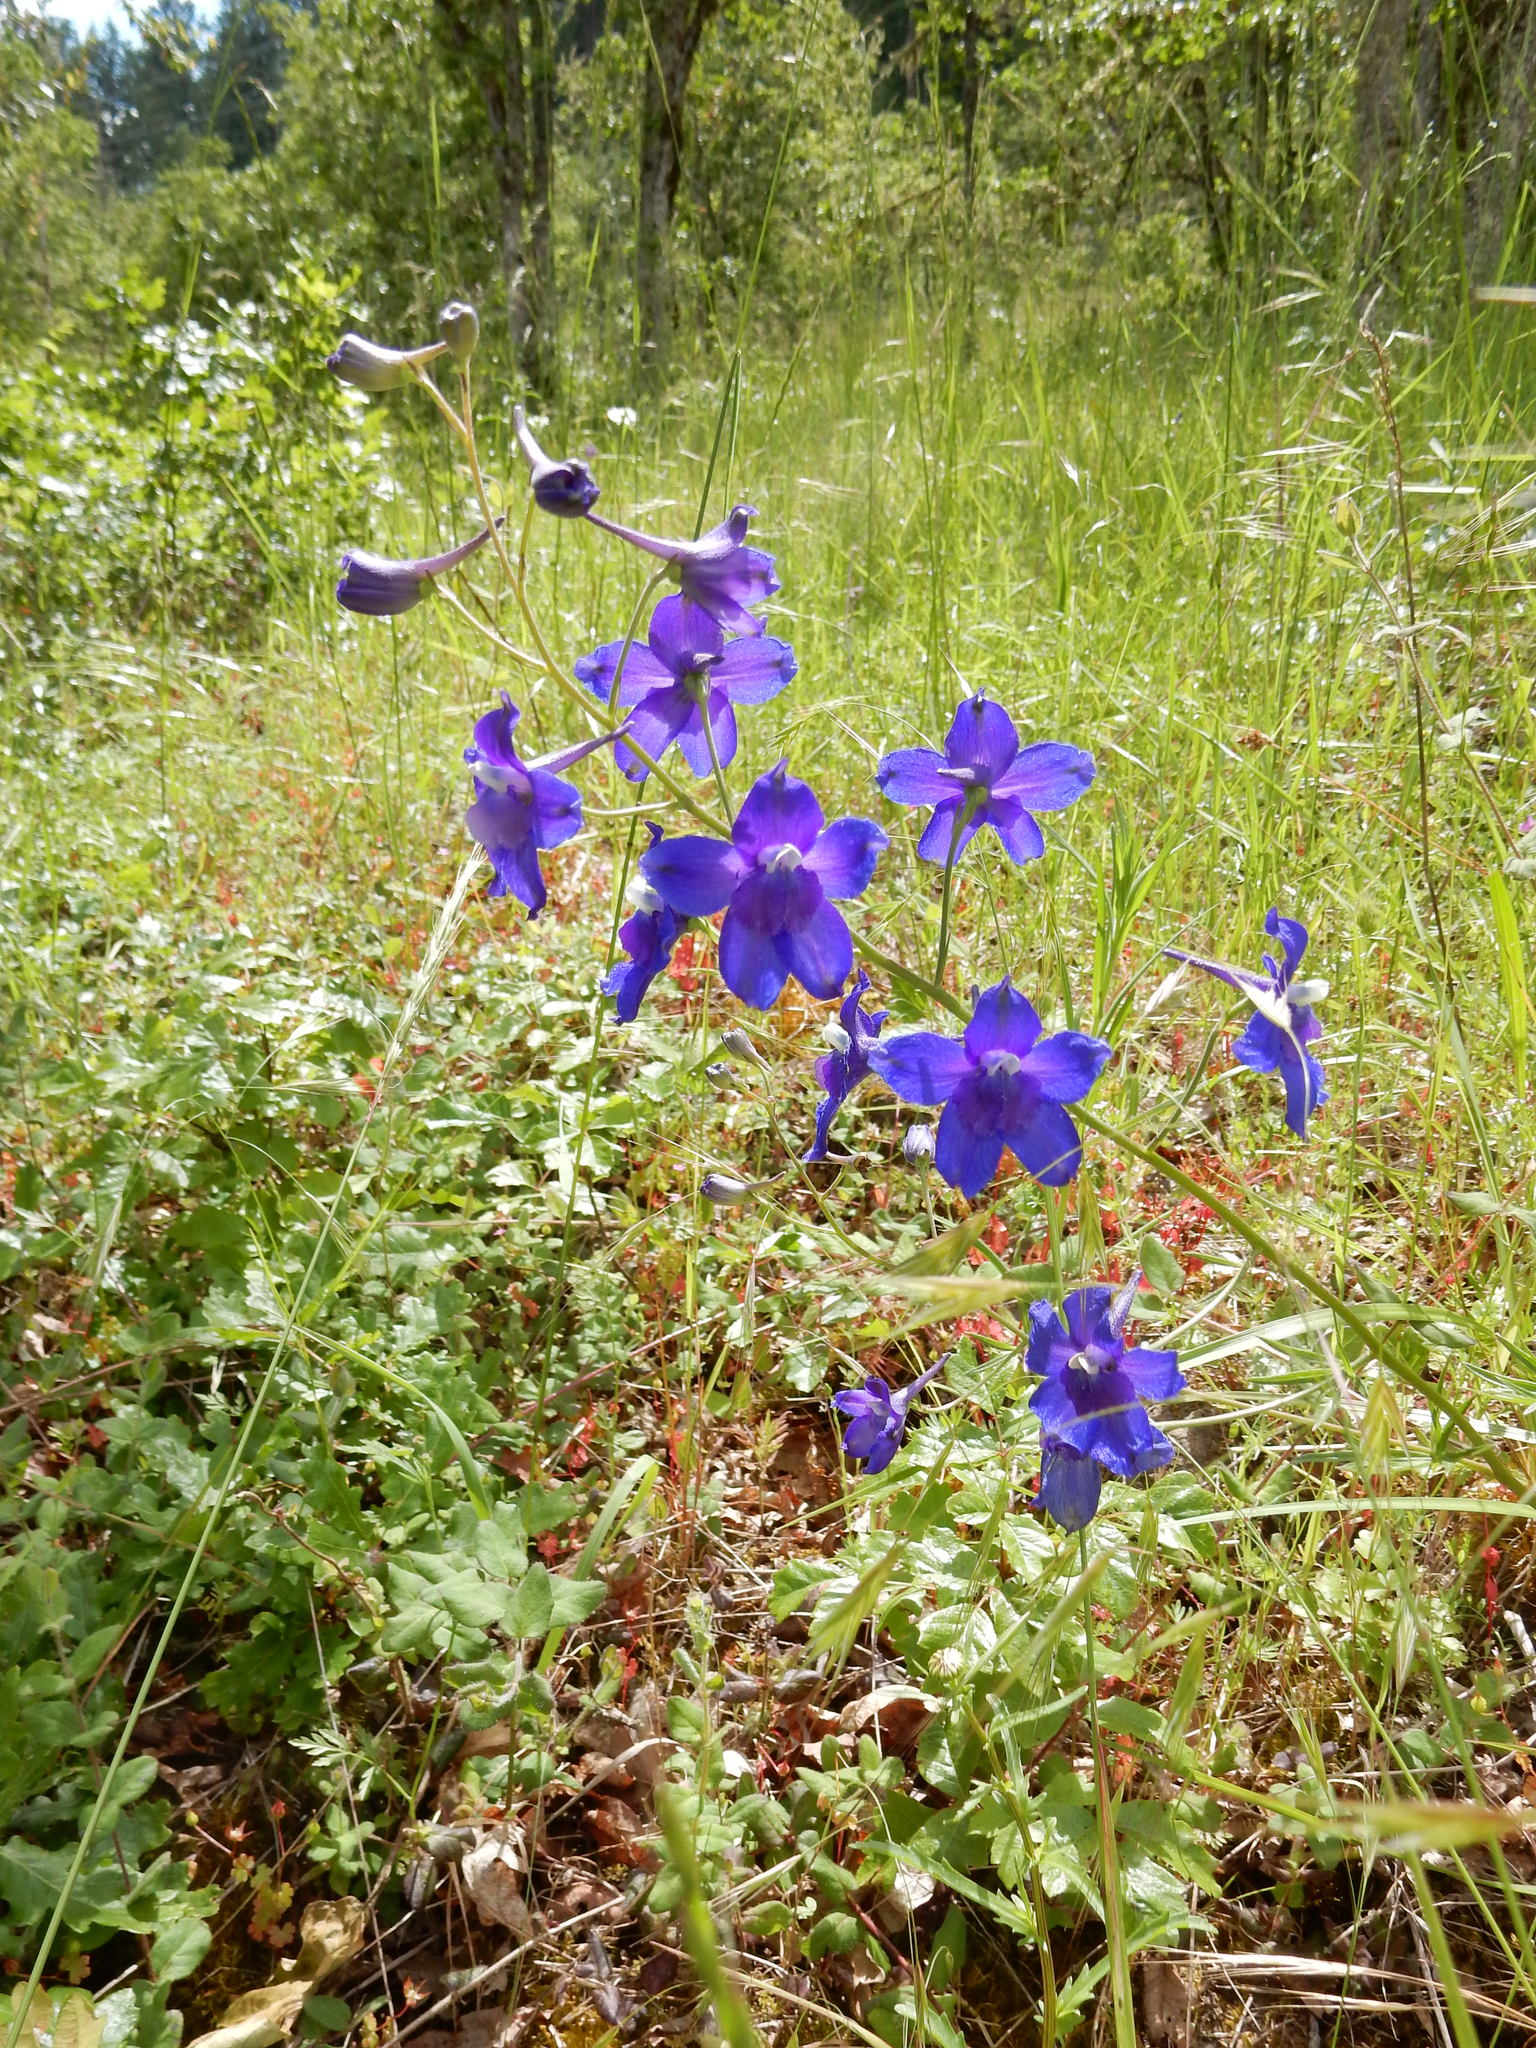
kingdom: Plantae
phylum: Tracheophyta
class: Magnoliopsida
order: Ranunculales
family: Ranunculaceae
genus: Delphinium
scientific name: Delphinium menziesii
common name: Menzies's larkspur
